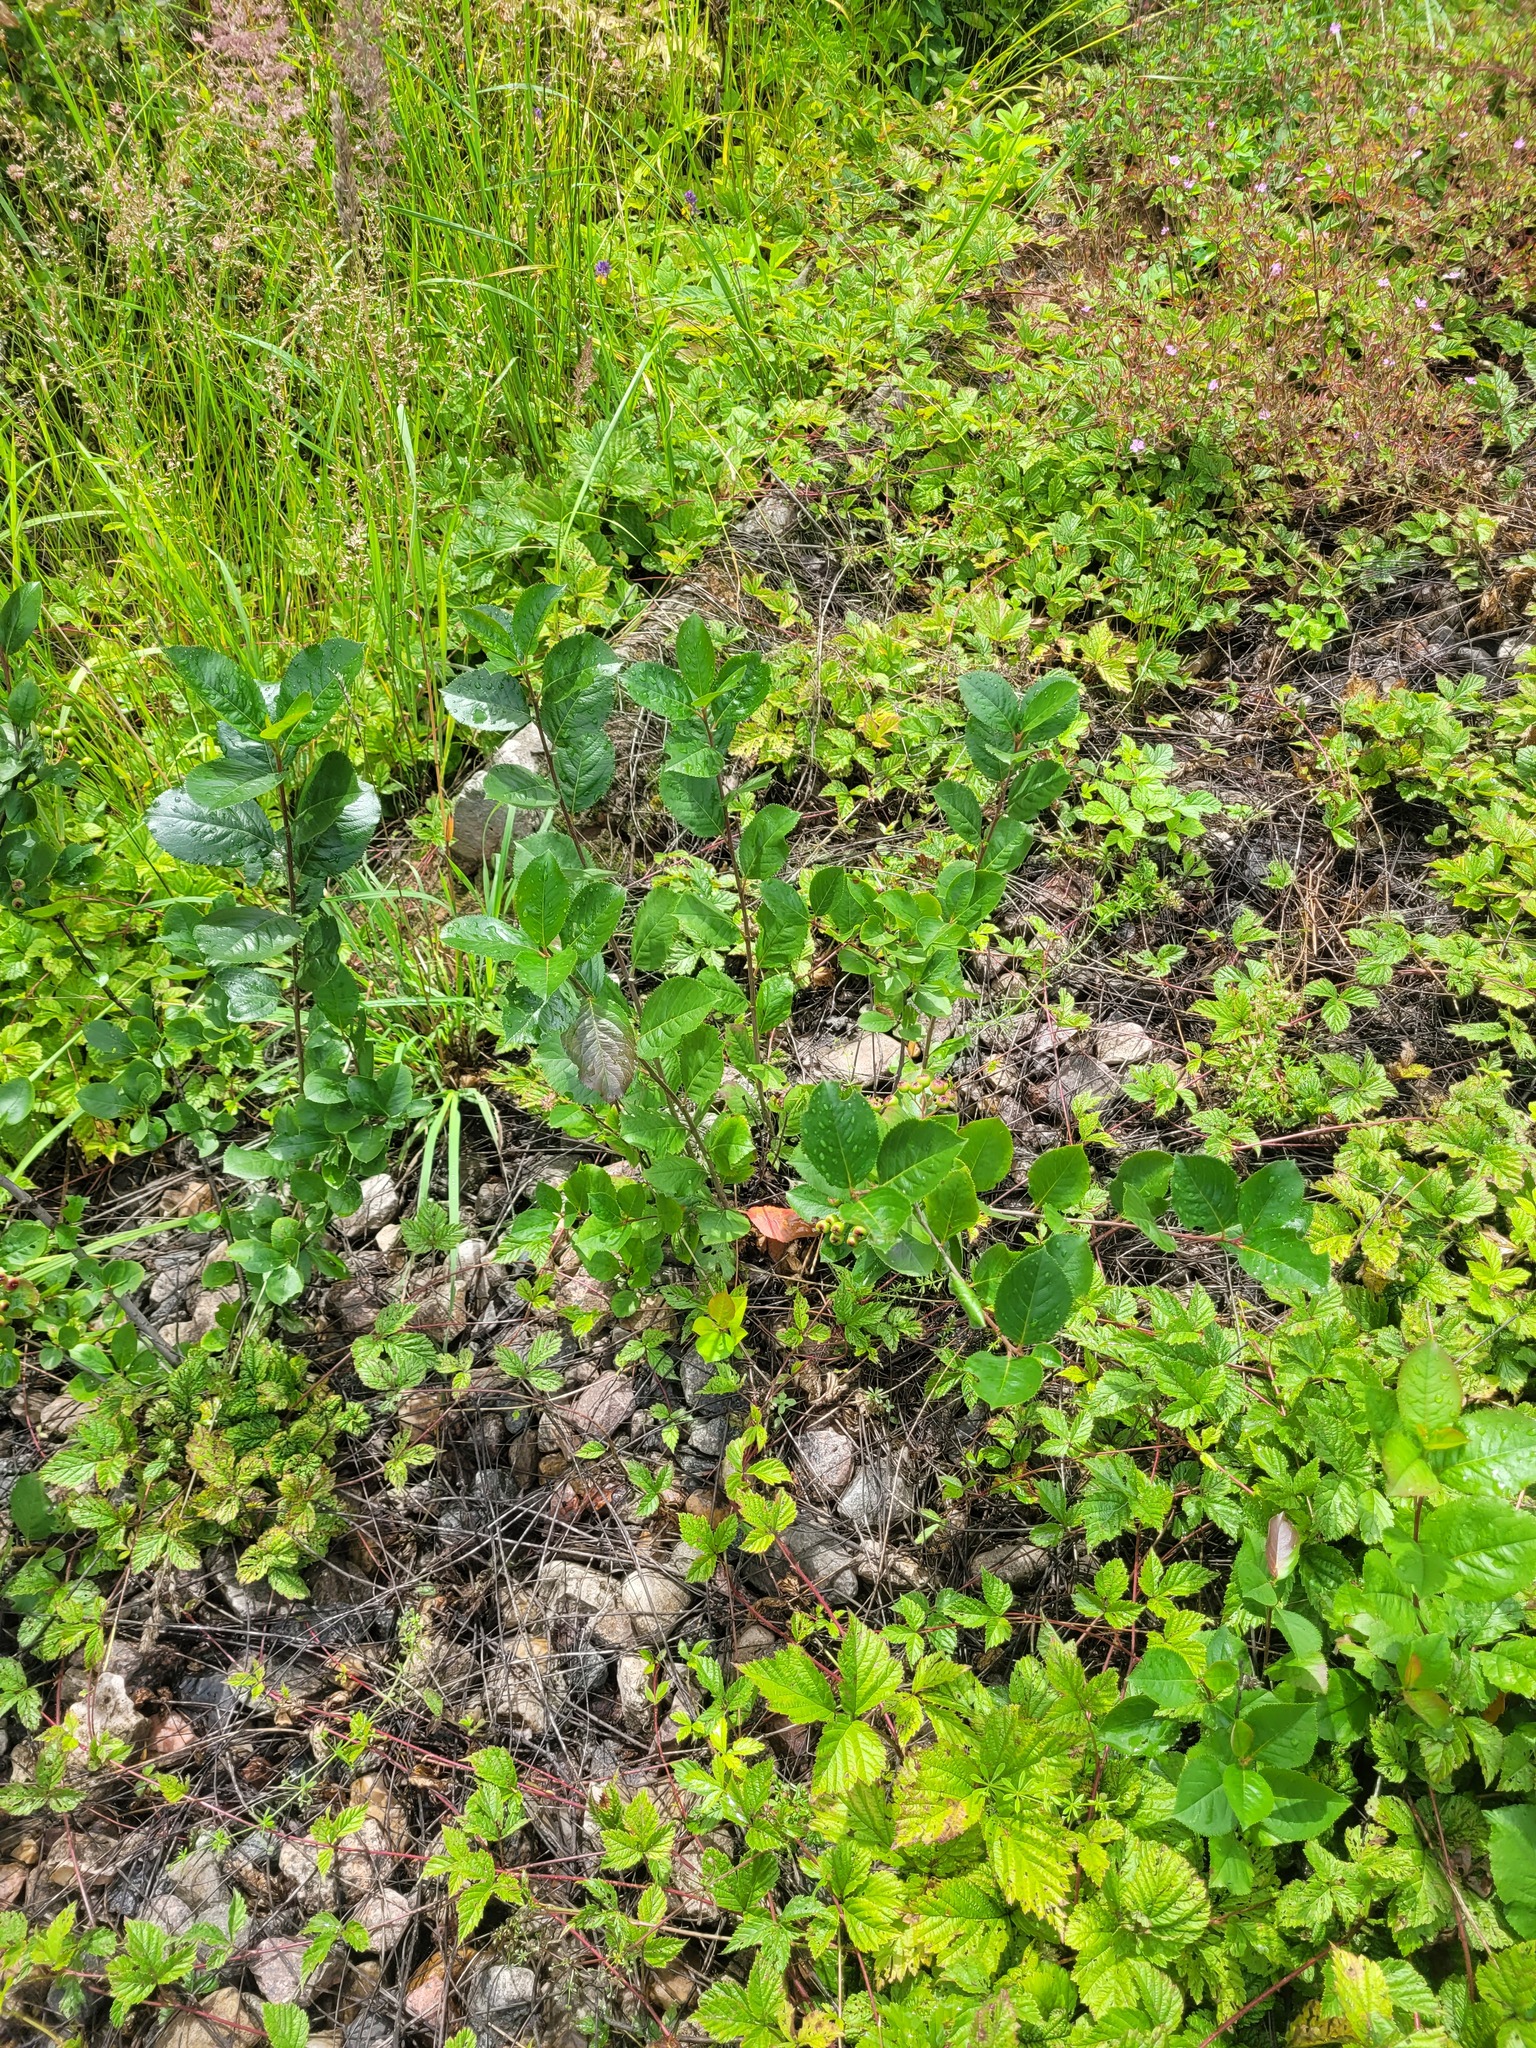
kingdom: Plantae
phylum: Tracheophyta
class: Magnoliopsida
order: Rosales
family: Rosaceae
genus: Sorbaronia
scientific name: Sorbaronia arsenii
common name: Arsène's mountain-ash
